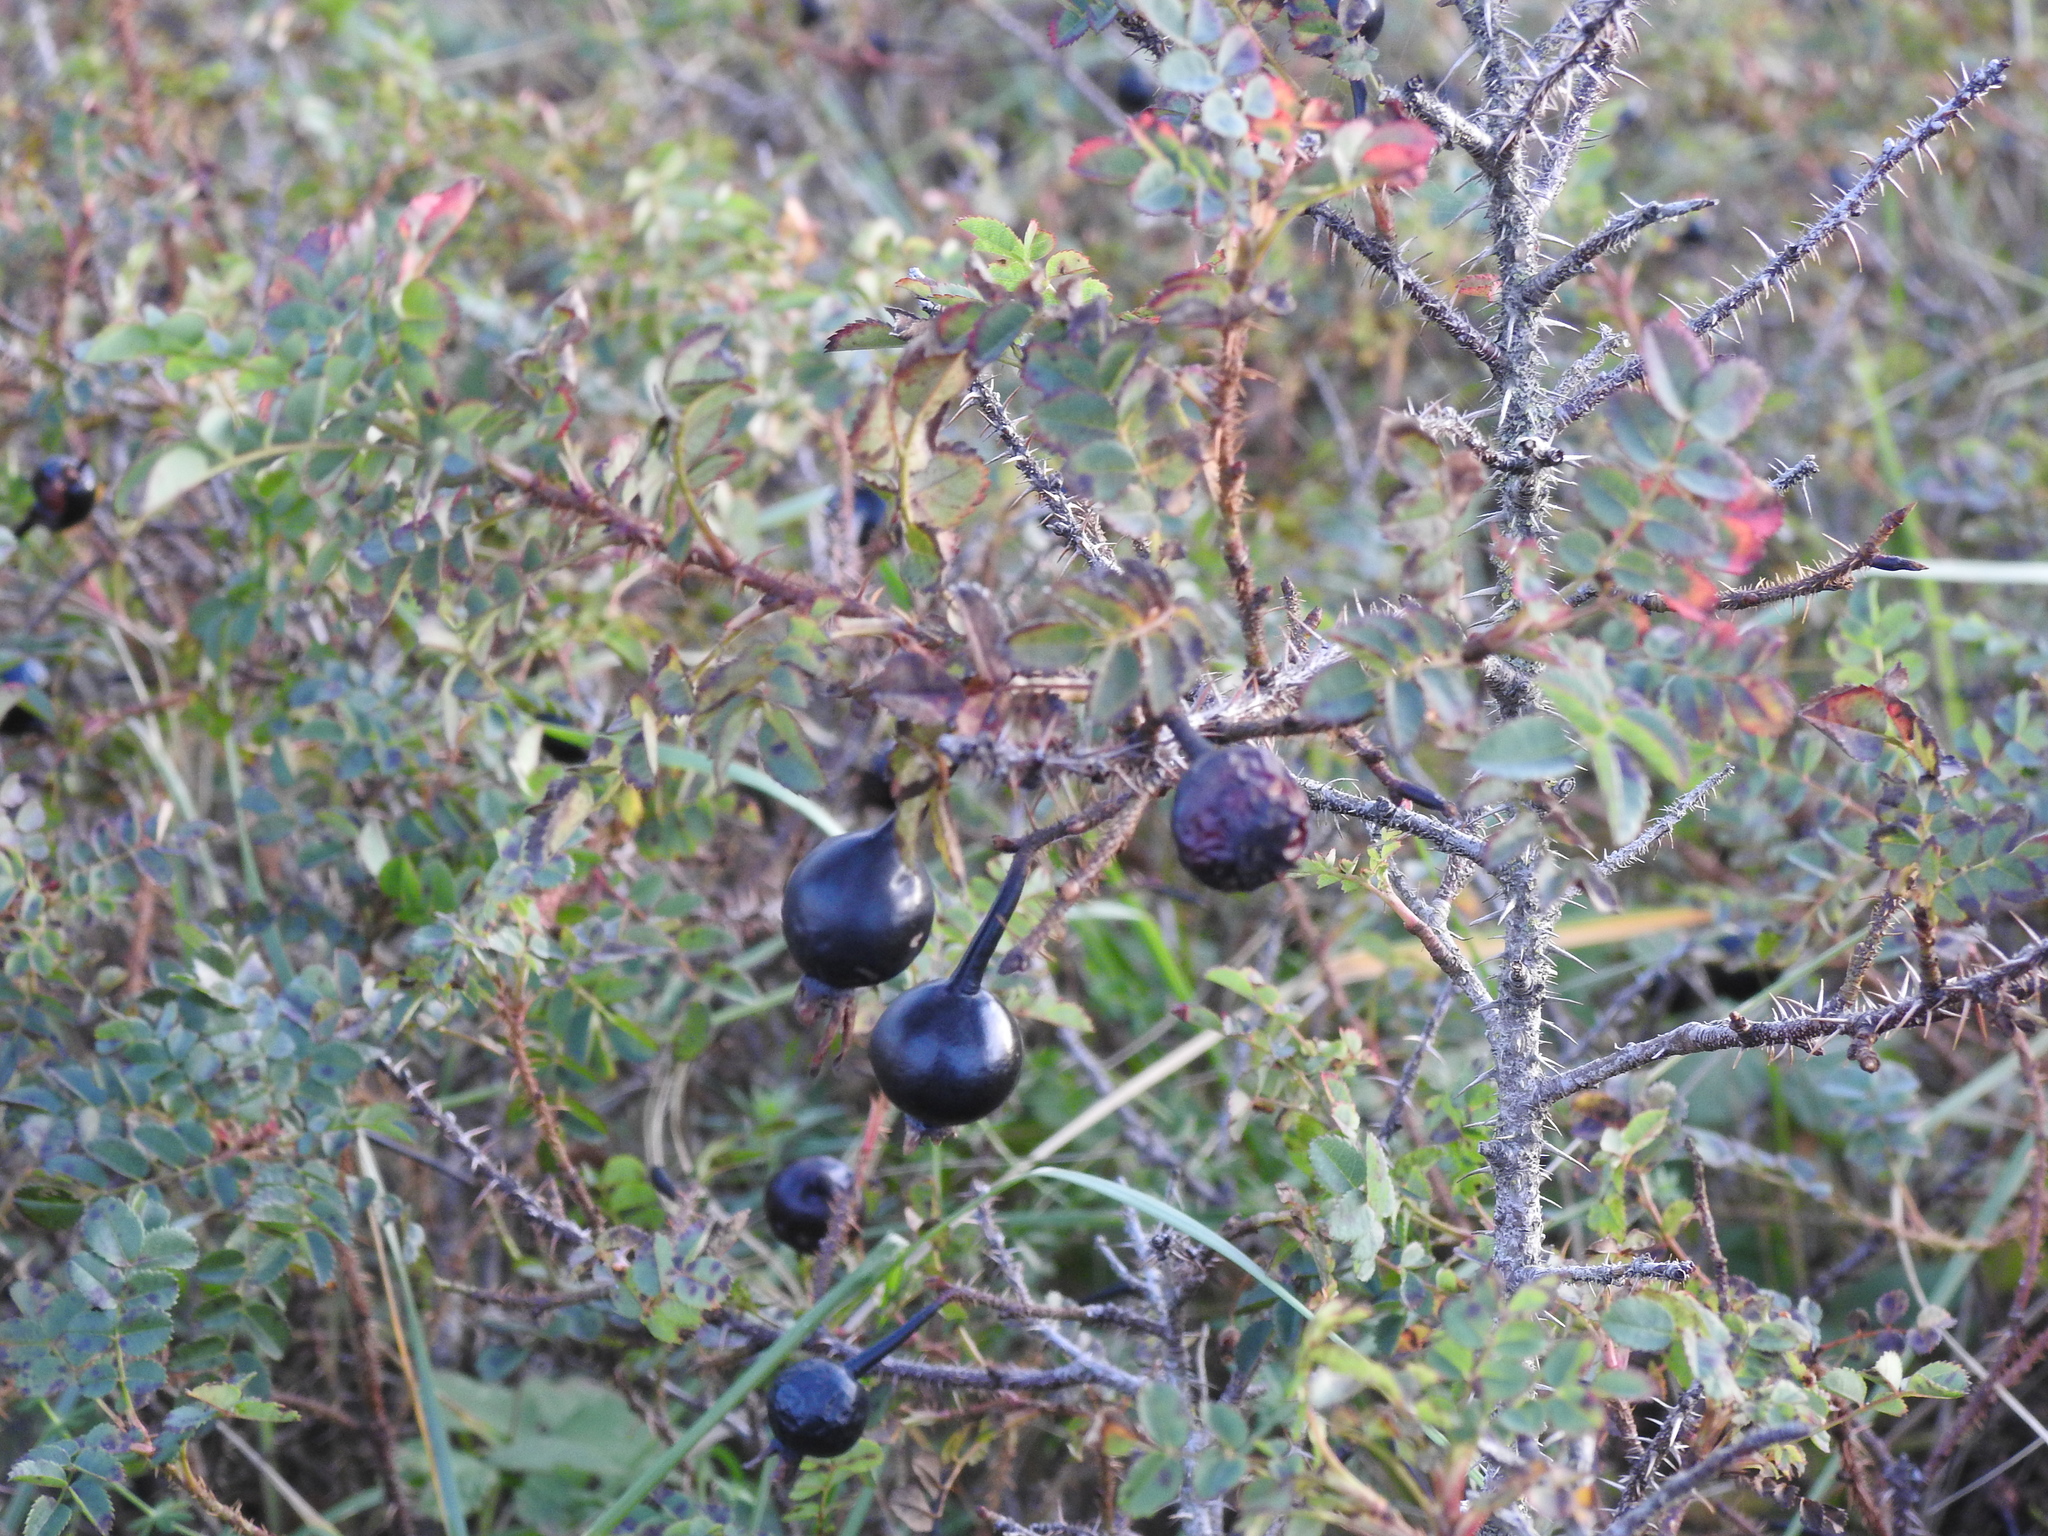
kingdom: Plantae
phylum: Tracheophyta
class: Magnoliopsida
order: Rosales
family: Rosaceae
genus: Rosa
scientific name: Rosa spinosissima
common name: Burnet rose
